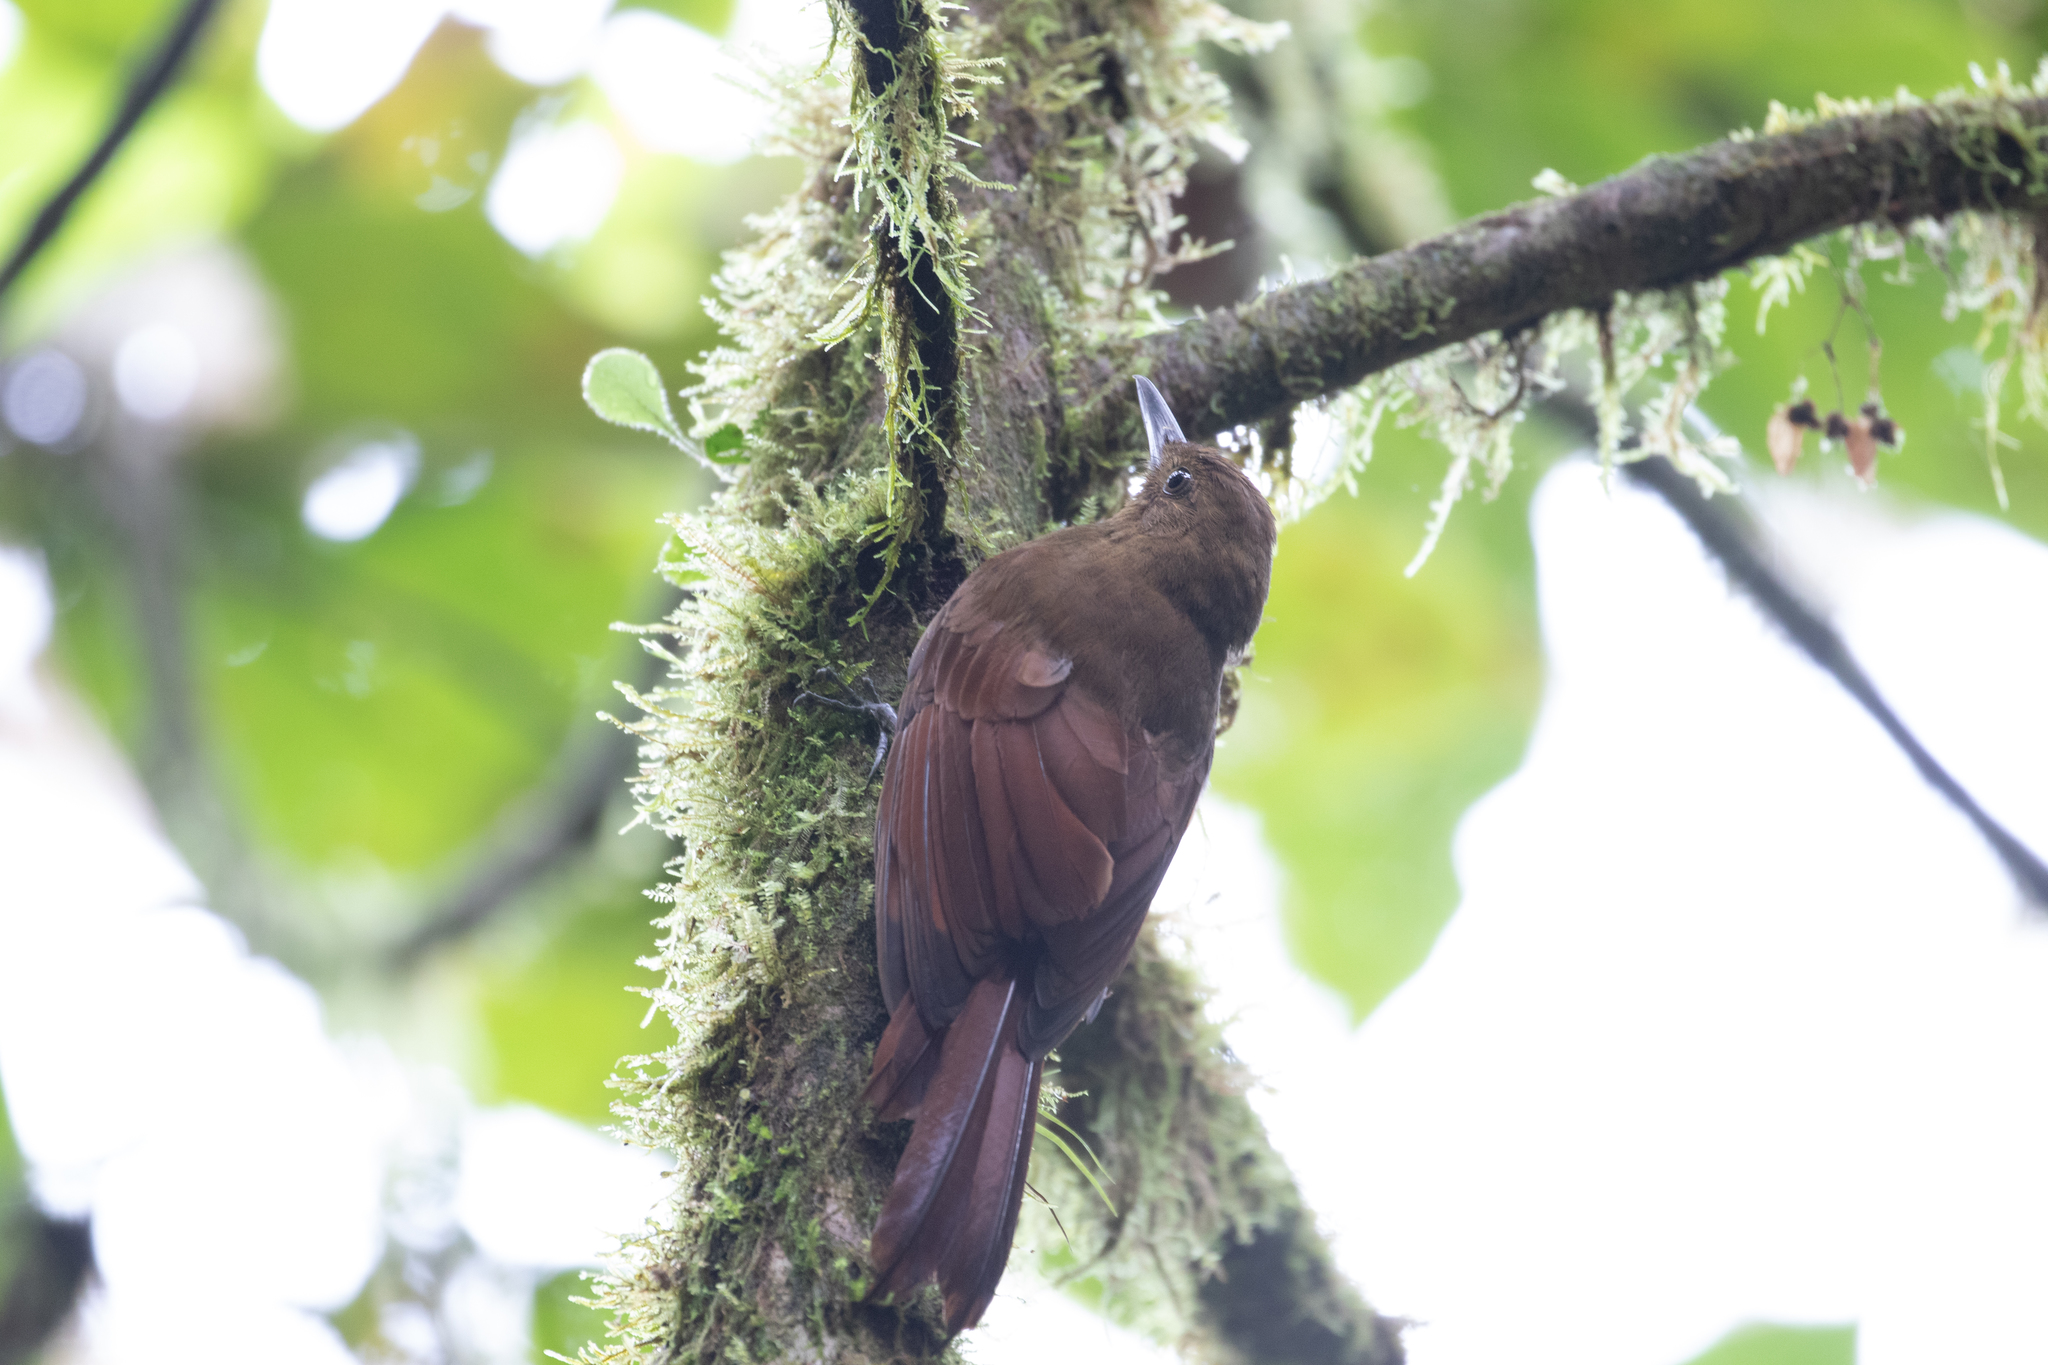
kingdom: Animalia
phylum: Chordata
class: Aves
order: Passeriformes
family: Furnariidae
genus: Dendrocincla
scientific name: Dendrocincla tyrannina
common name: Tyrannine woodcreeper
